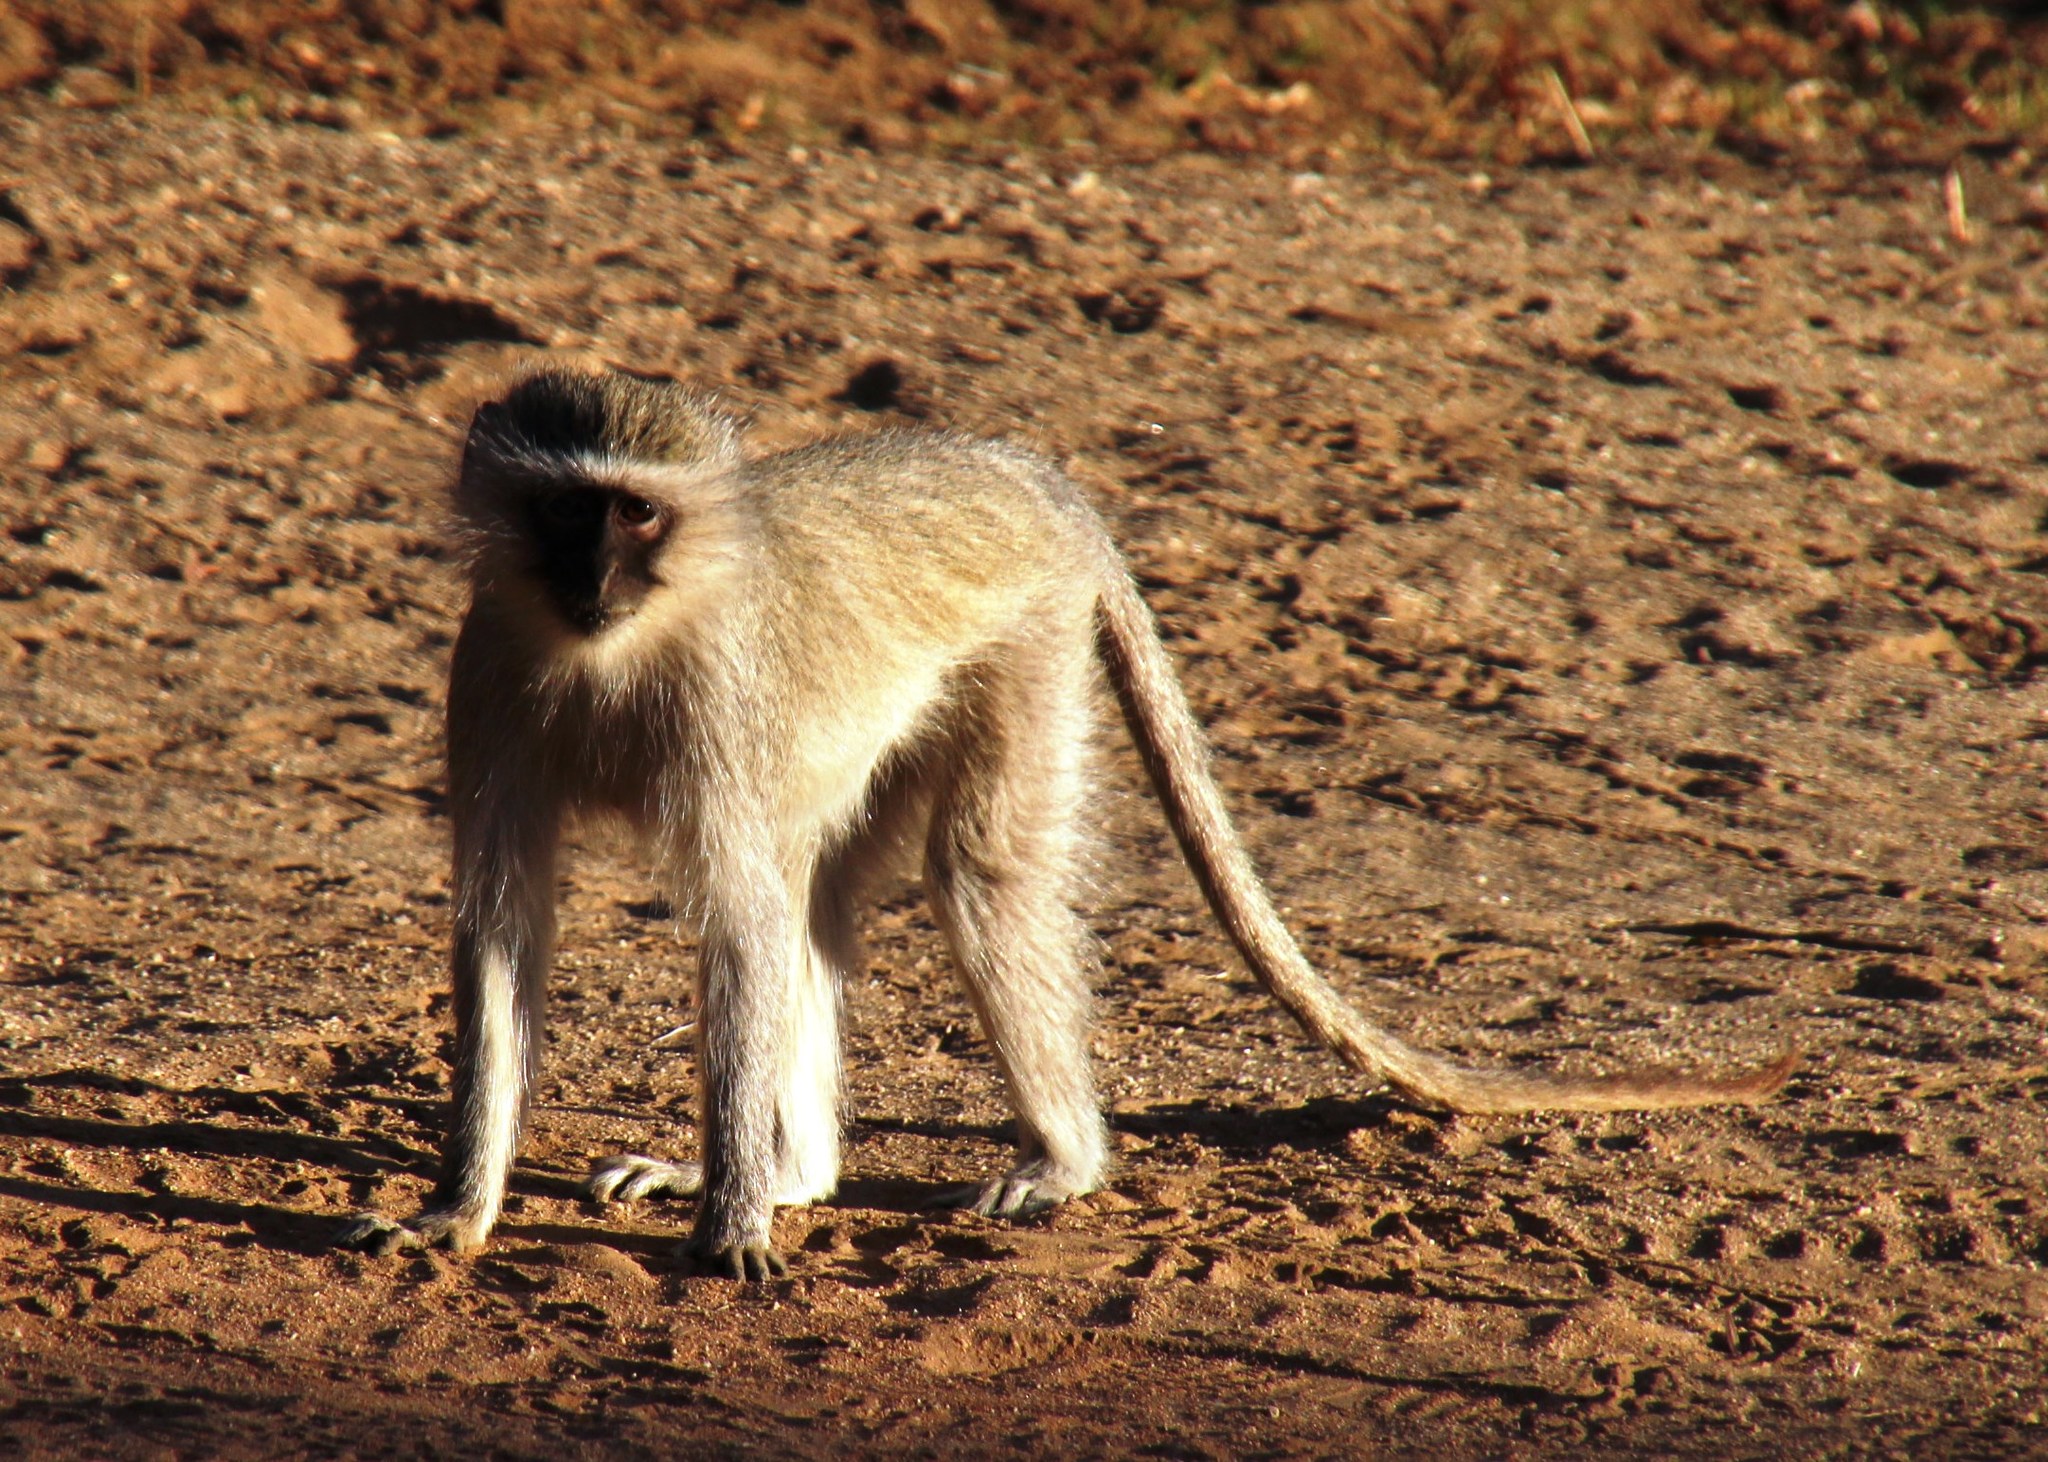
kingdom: Animalia
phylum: Chordata
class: Mammalia
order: Primates
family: Cercopithecidae
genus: Chlorocebus
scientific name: Chlorocebus pygerythrus
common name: Vervet monkey
